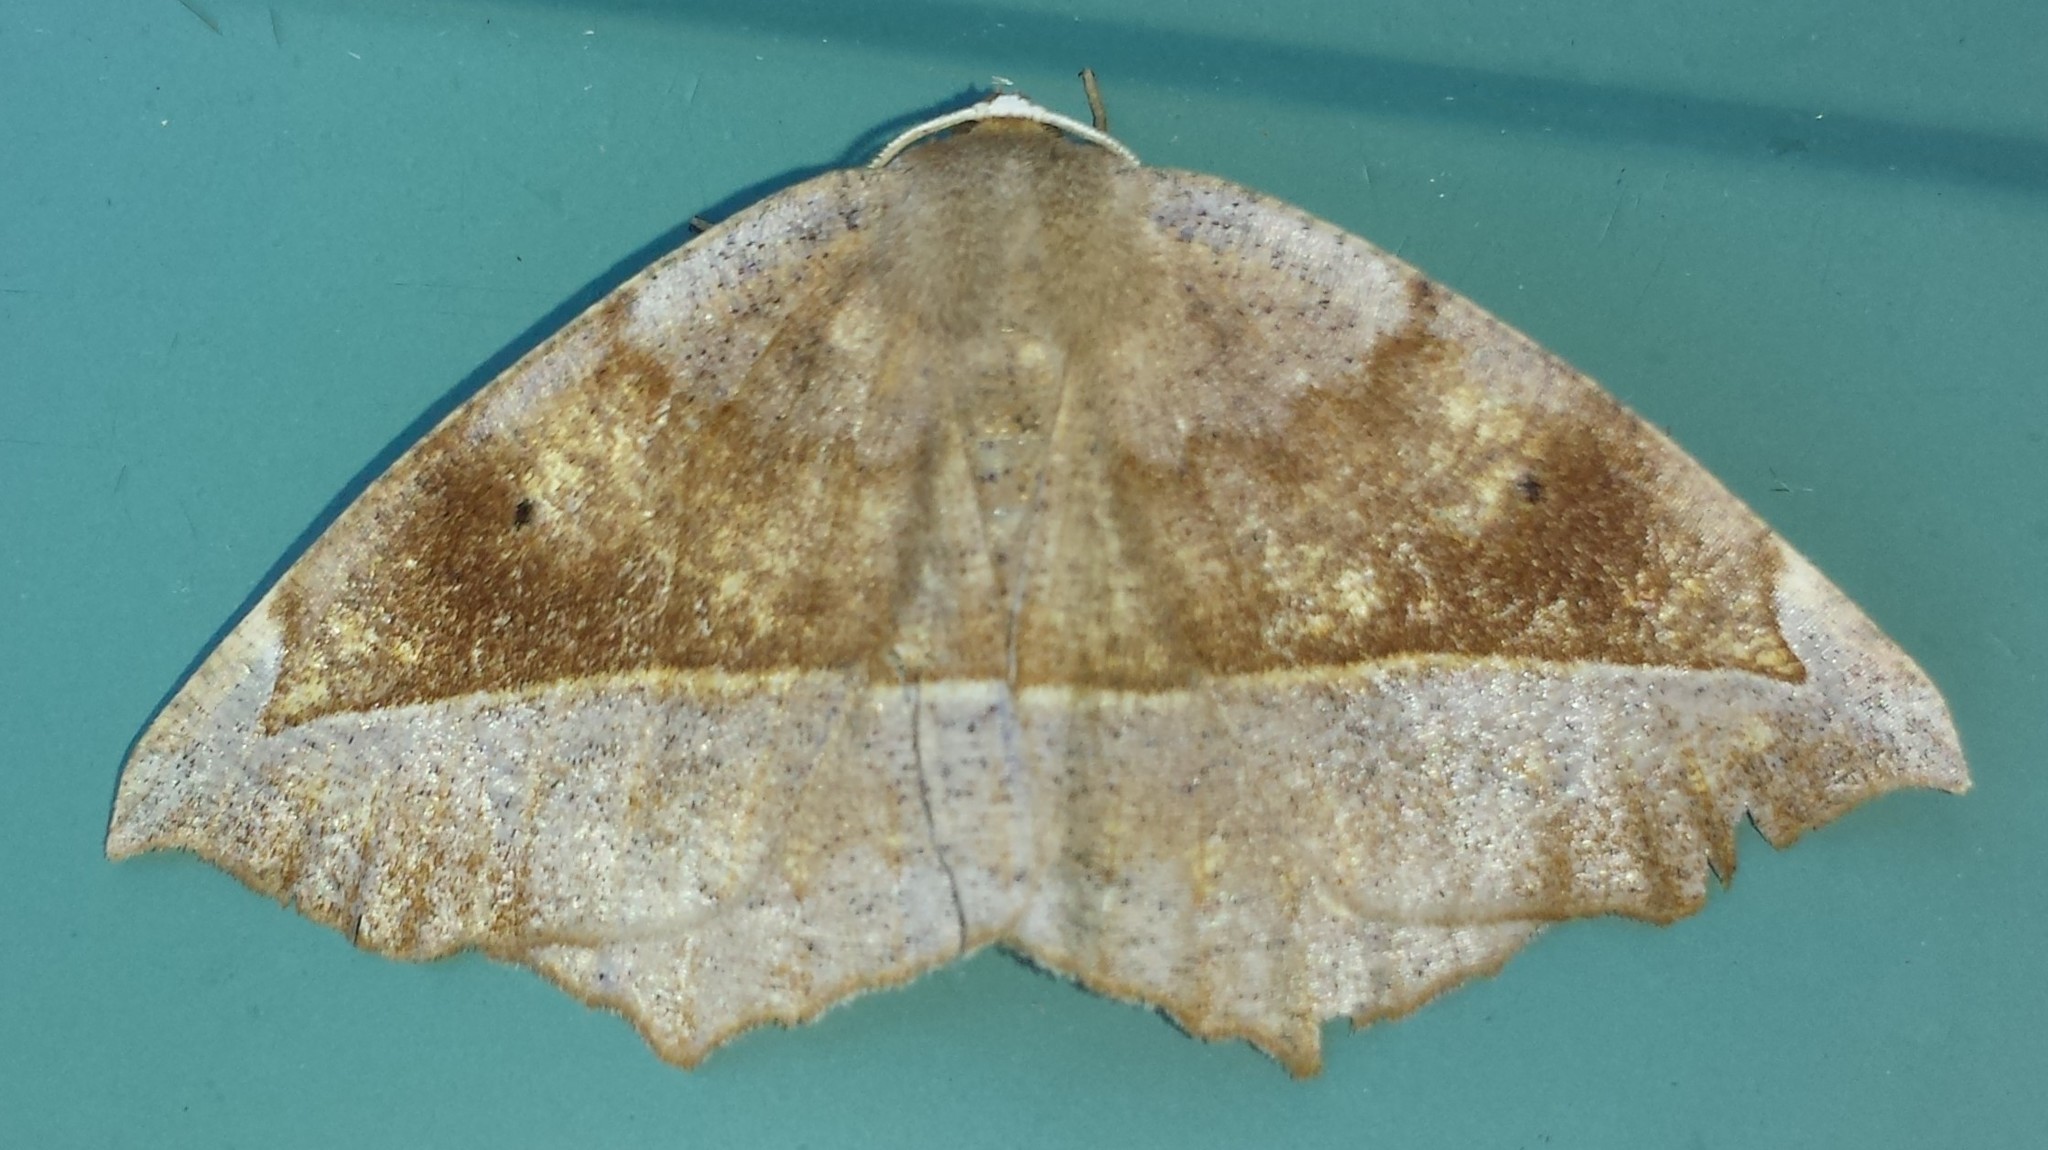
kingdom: Animalia
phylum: Arthropoda
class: Insecta
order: Lepidoptera
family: Geometridae
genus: Eutrapela
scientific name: Eutrapela clemataria
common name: Curved-toothed geometer
